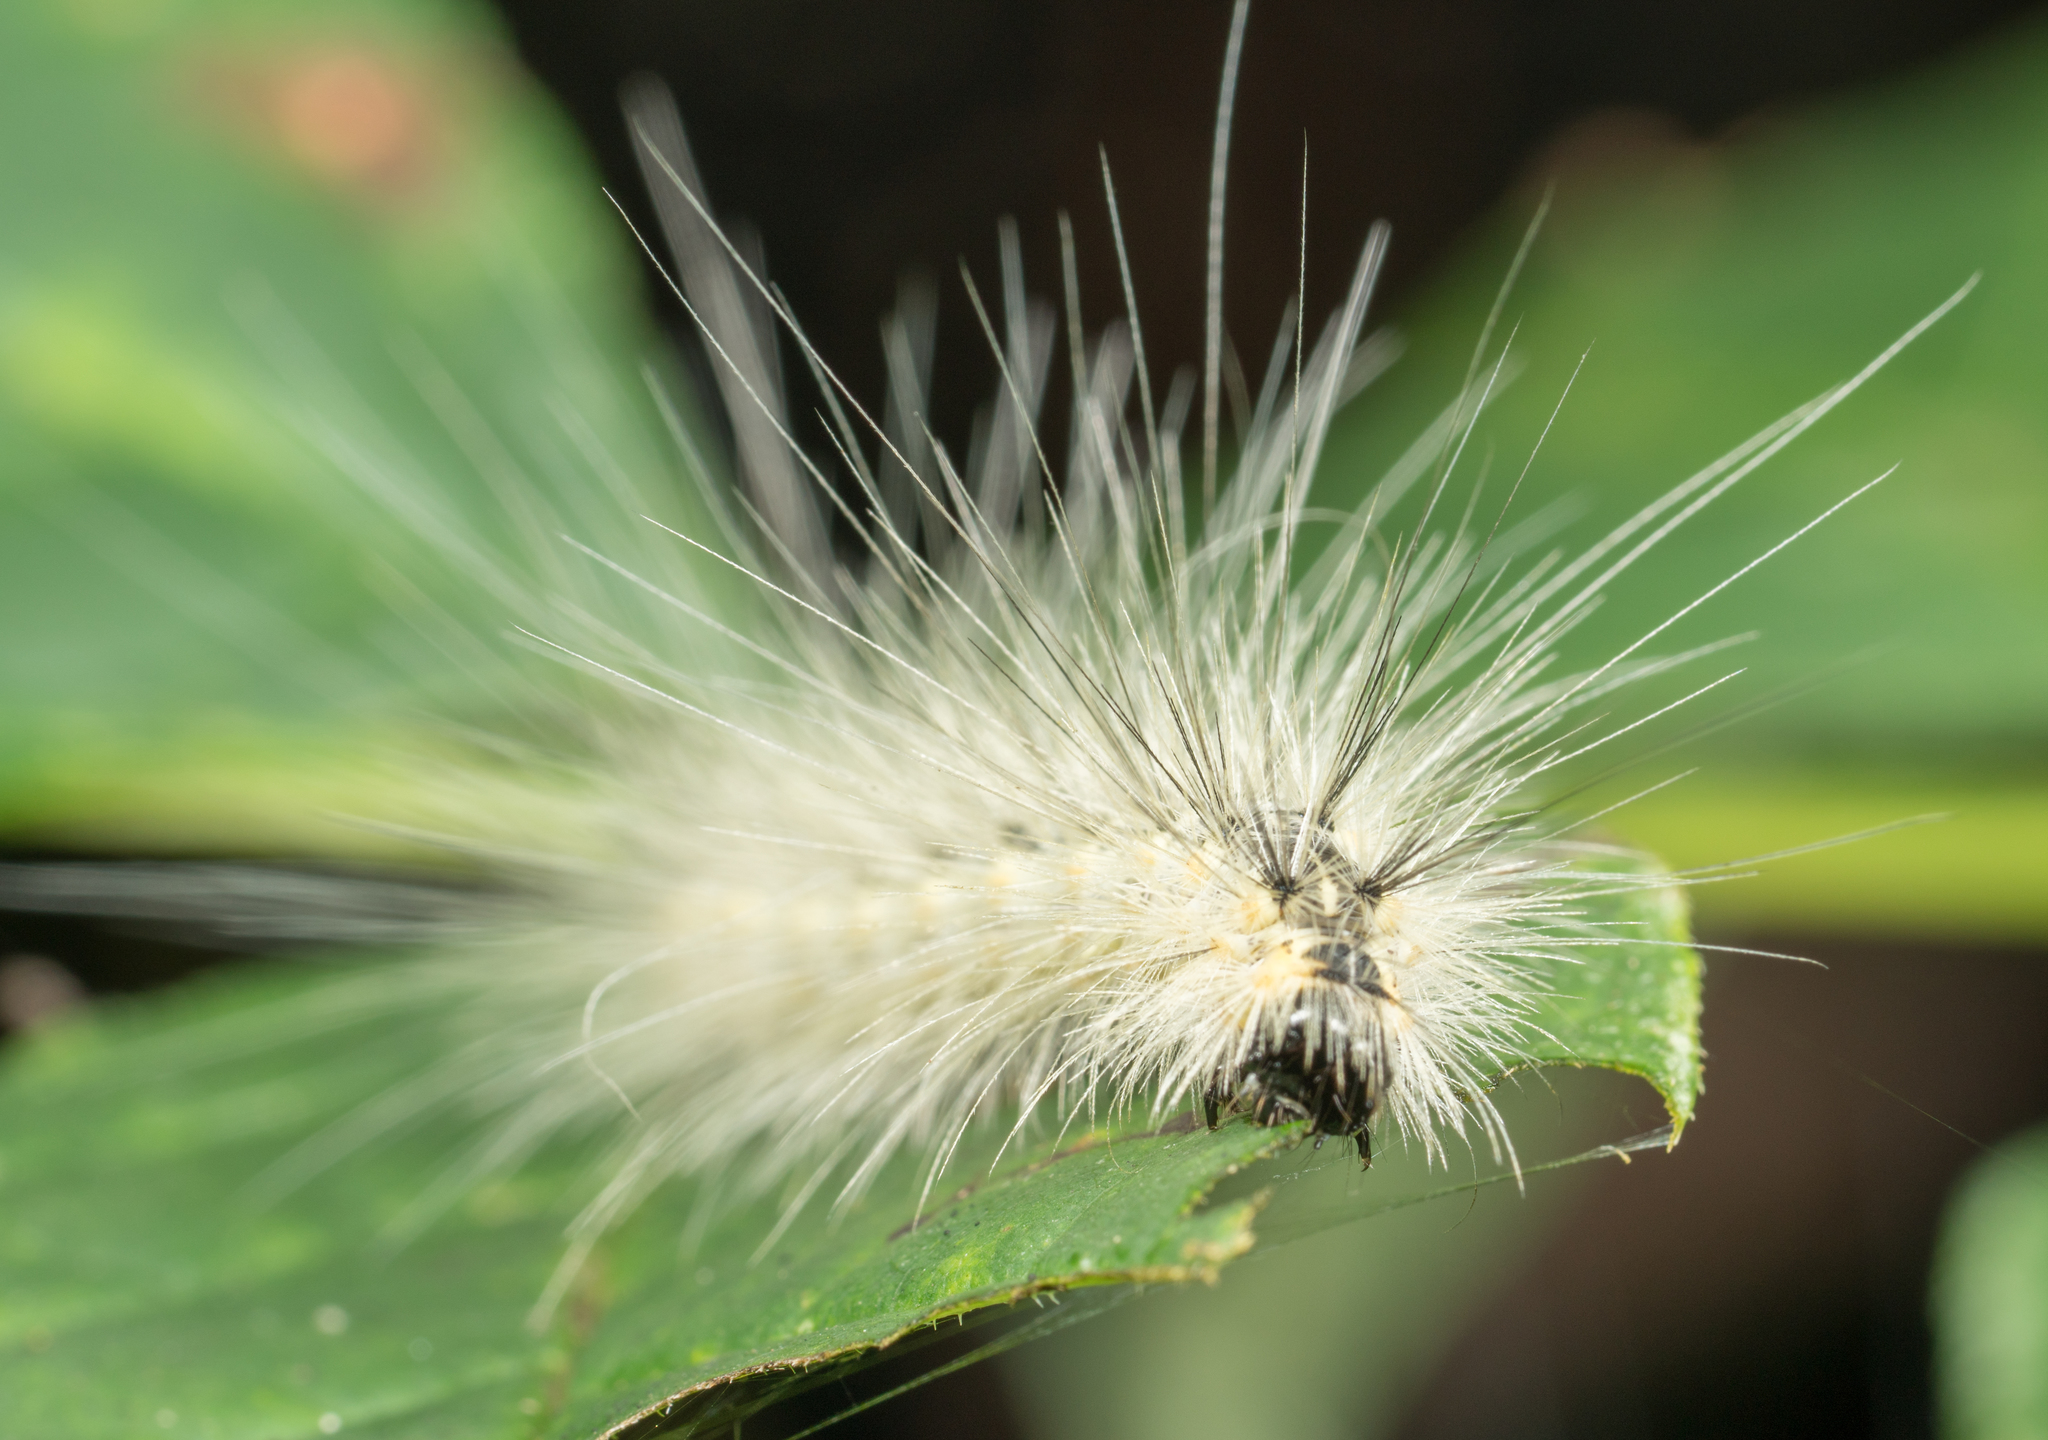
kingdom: Animalia
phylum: Arthropoda
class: Insecta
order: Lepidoptera
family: Erebidae
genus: Hyphantria
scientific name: Hyphantria cunea
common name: American white moth
